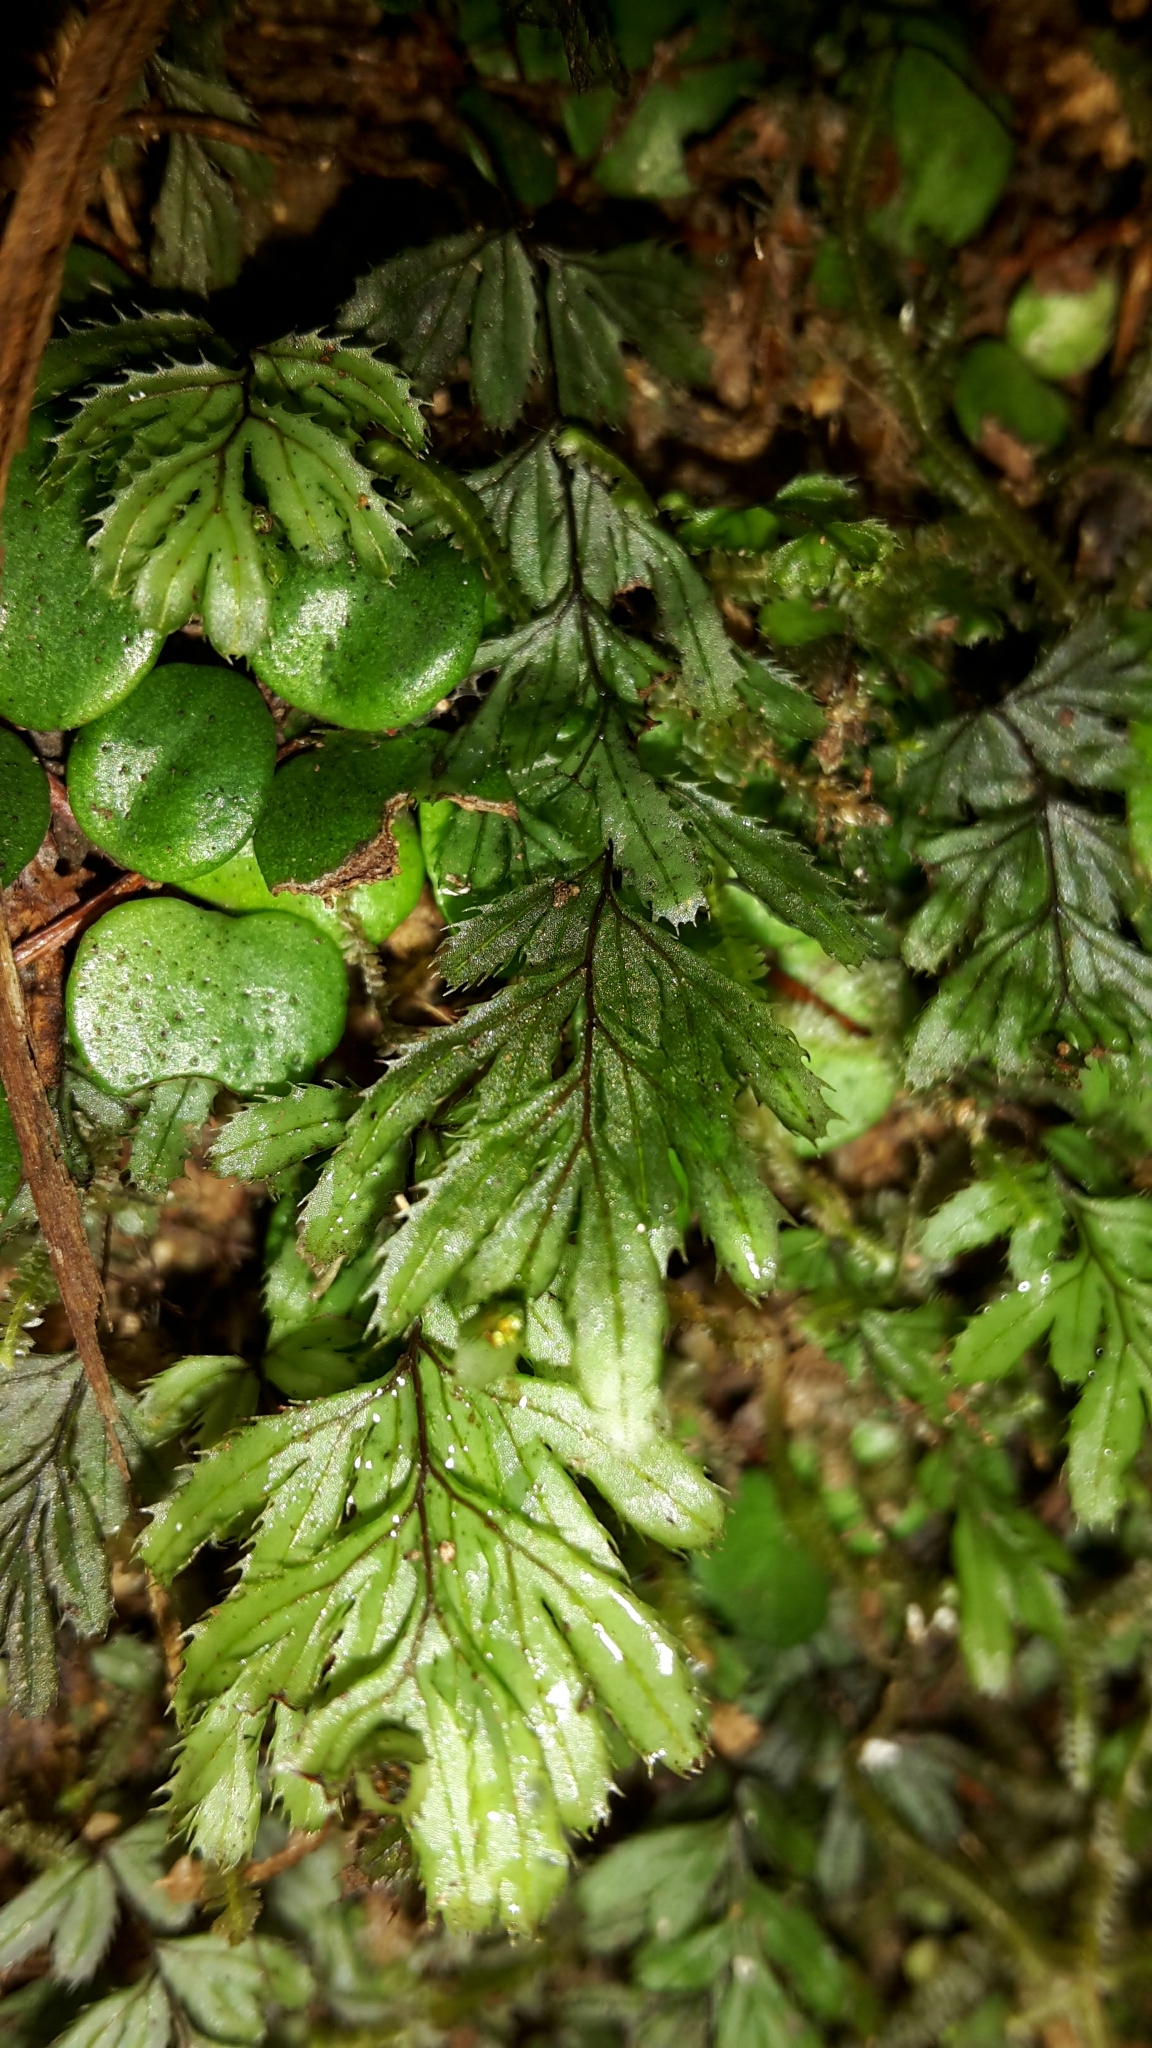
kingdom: Plantae
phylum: Tracheophyta
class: Polypodiopsida
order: Hymenophyllales
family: Hymenophyllaceae
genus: Hymenophyllum
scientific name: Hymenophyllum revolutum
